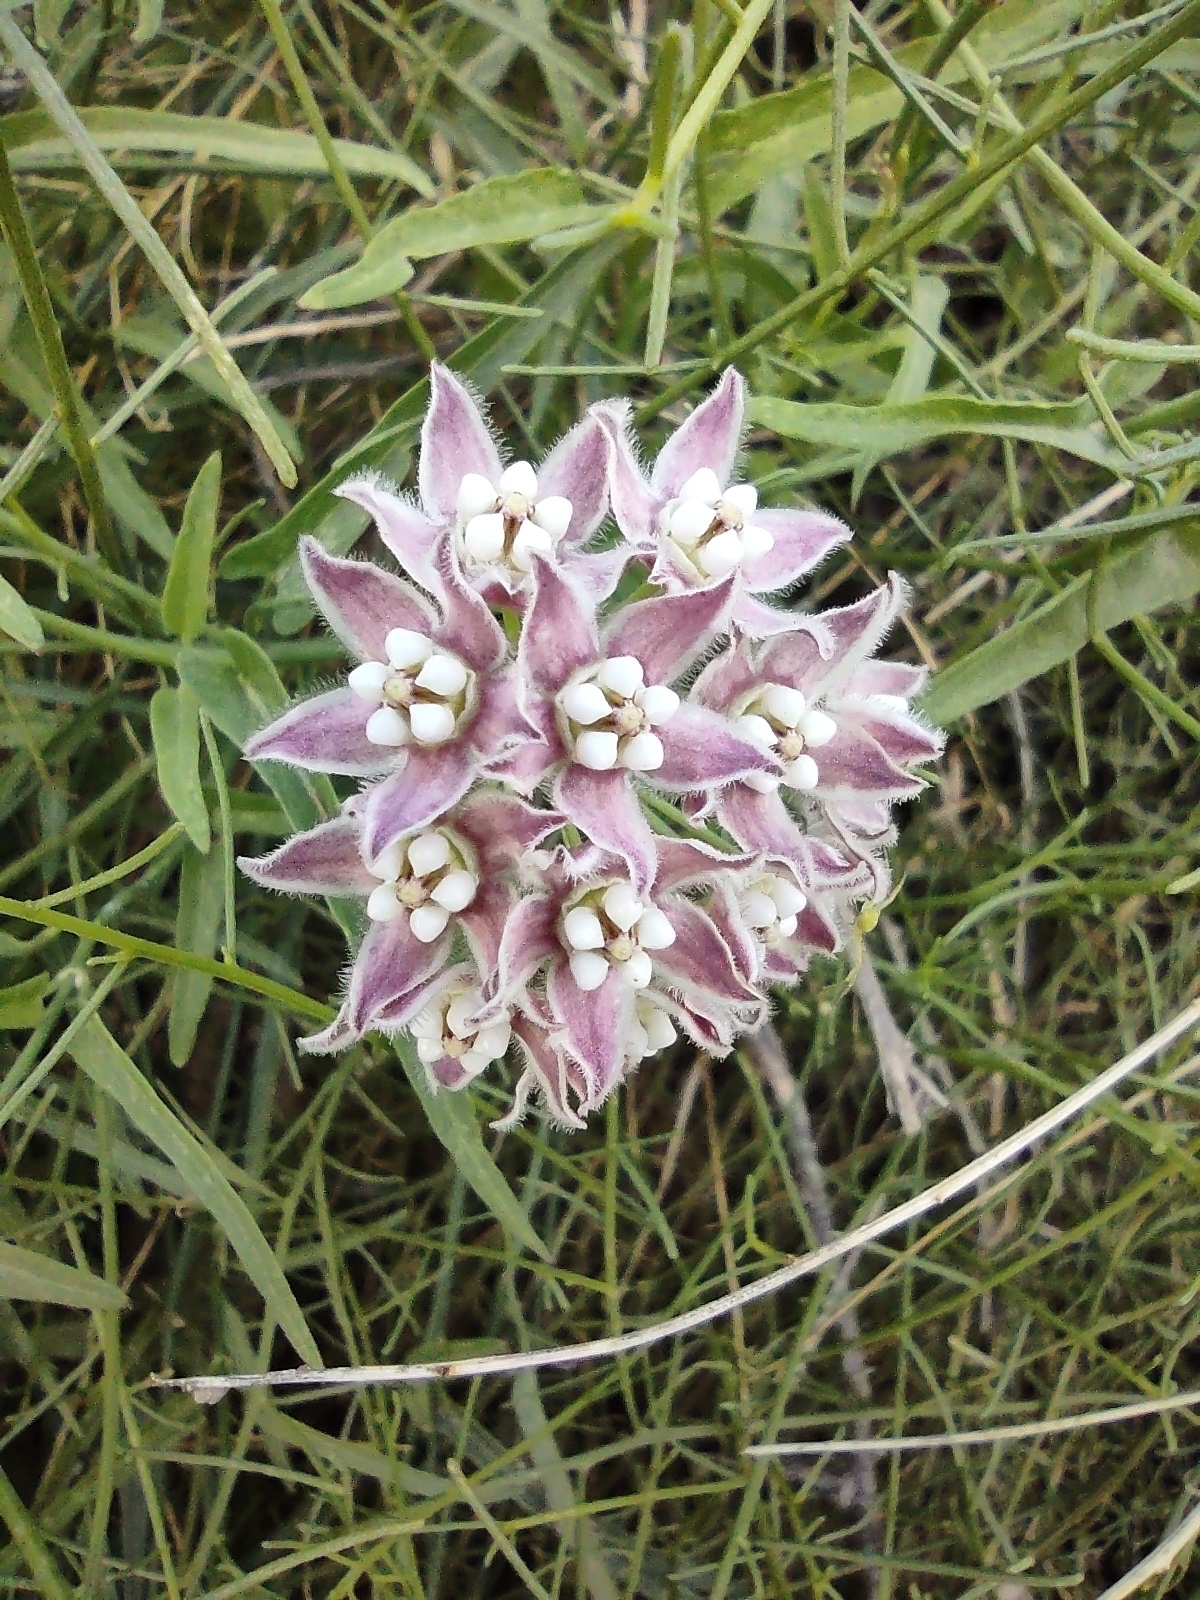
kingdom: Plantae
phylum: Tracheophyta
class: Magnoliopsida
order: Gentianales
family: Apocynaceae
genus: Funastrum
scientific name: Funastrum heterophyllum
